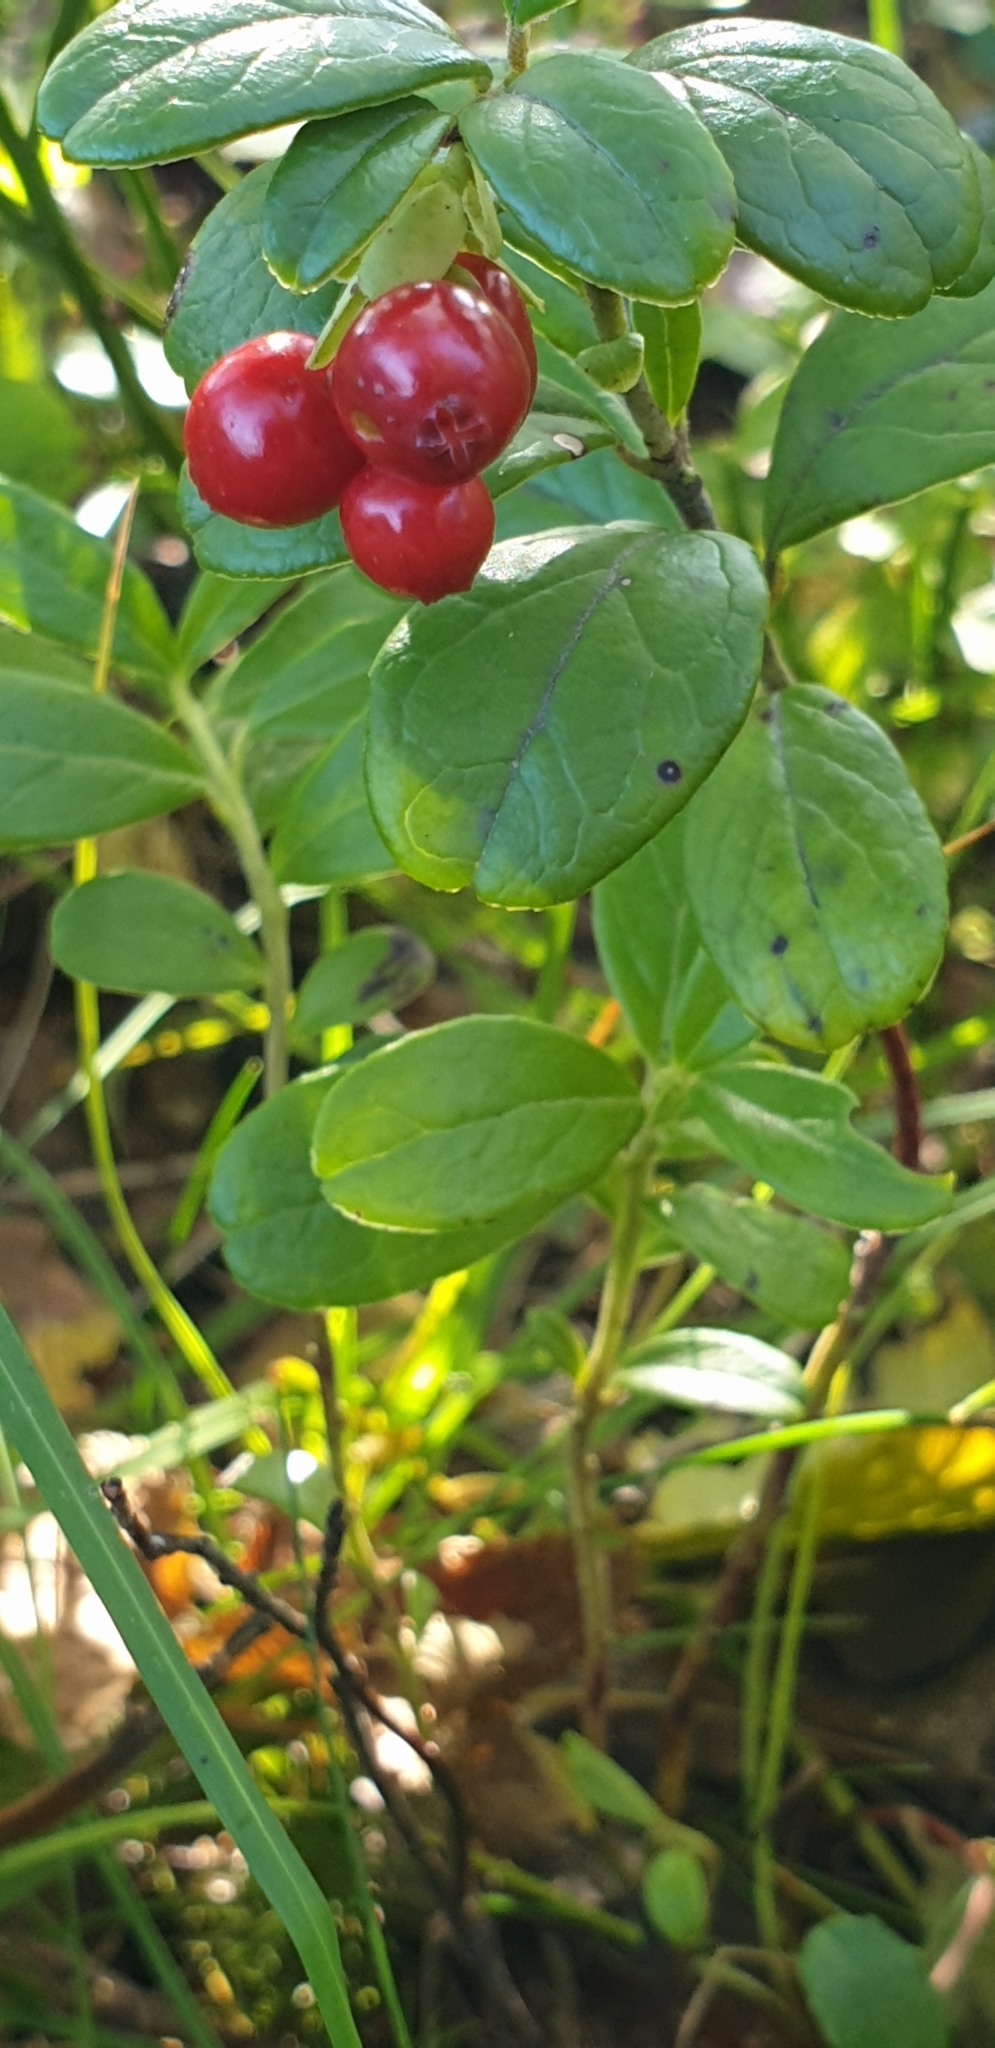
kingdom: Plantae
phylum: Tracheophyta
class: Magnoliopsida
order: Ericales
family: Ericaceae
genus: Vaccinium
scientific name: Vaccinium vitis-idaea
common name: Cowberry
